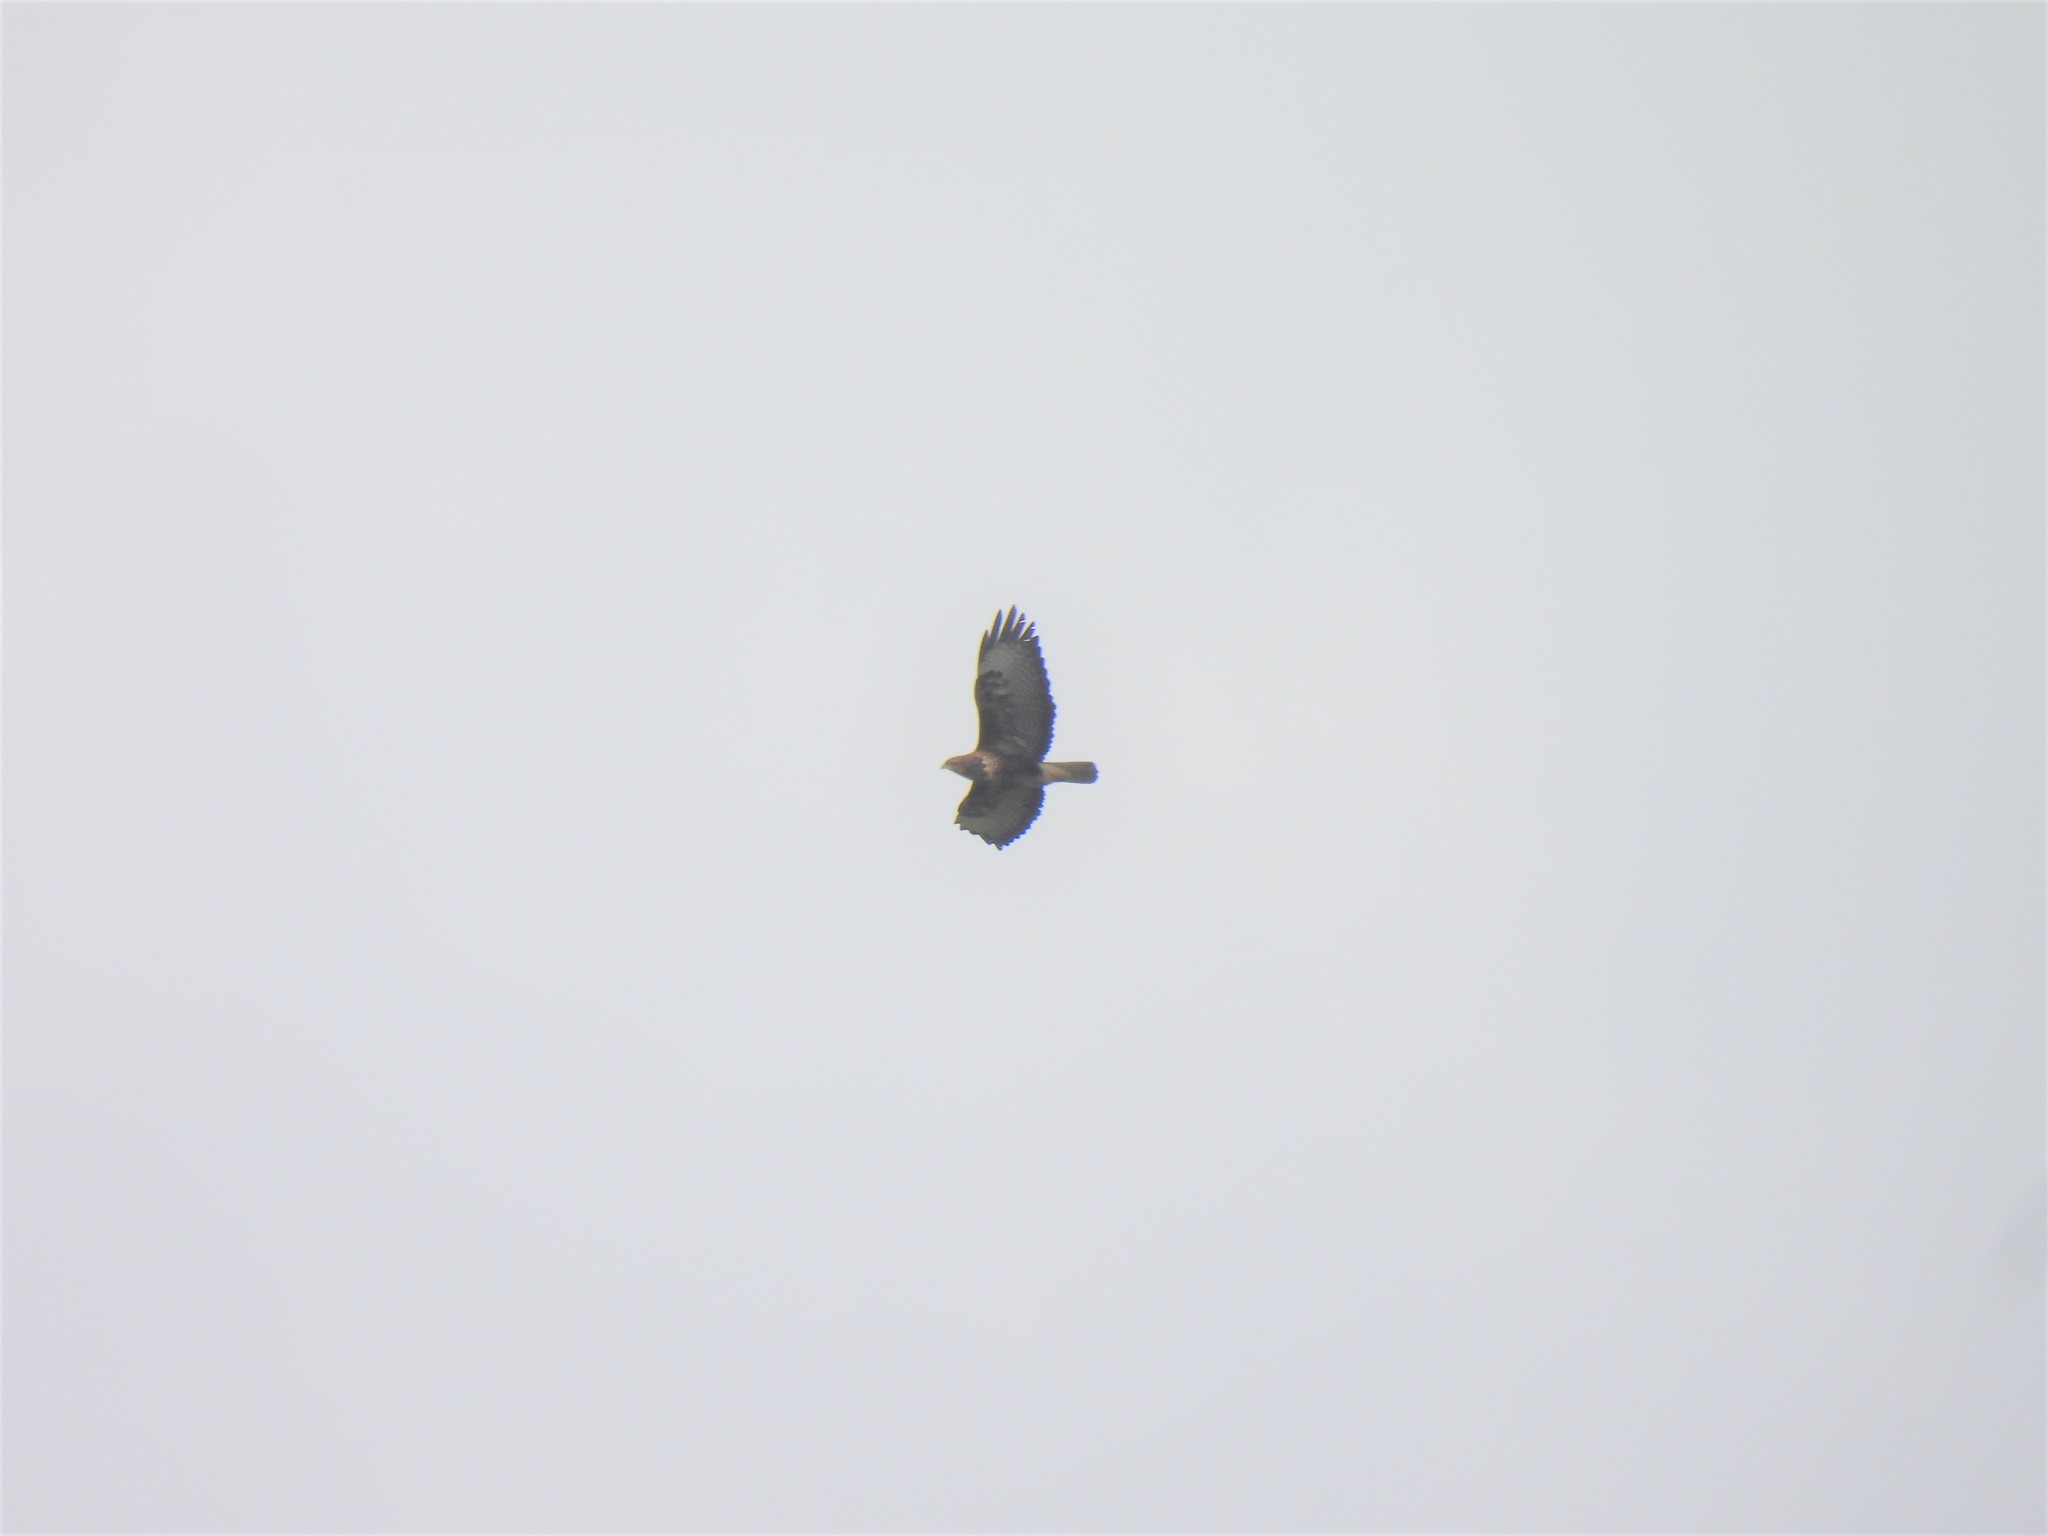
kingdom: Animalia
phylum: Chordata
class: Aves
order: Accipitriformes
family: Accipitridae
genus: Buteo
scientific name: Buteo buteo
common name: Common buzzard
